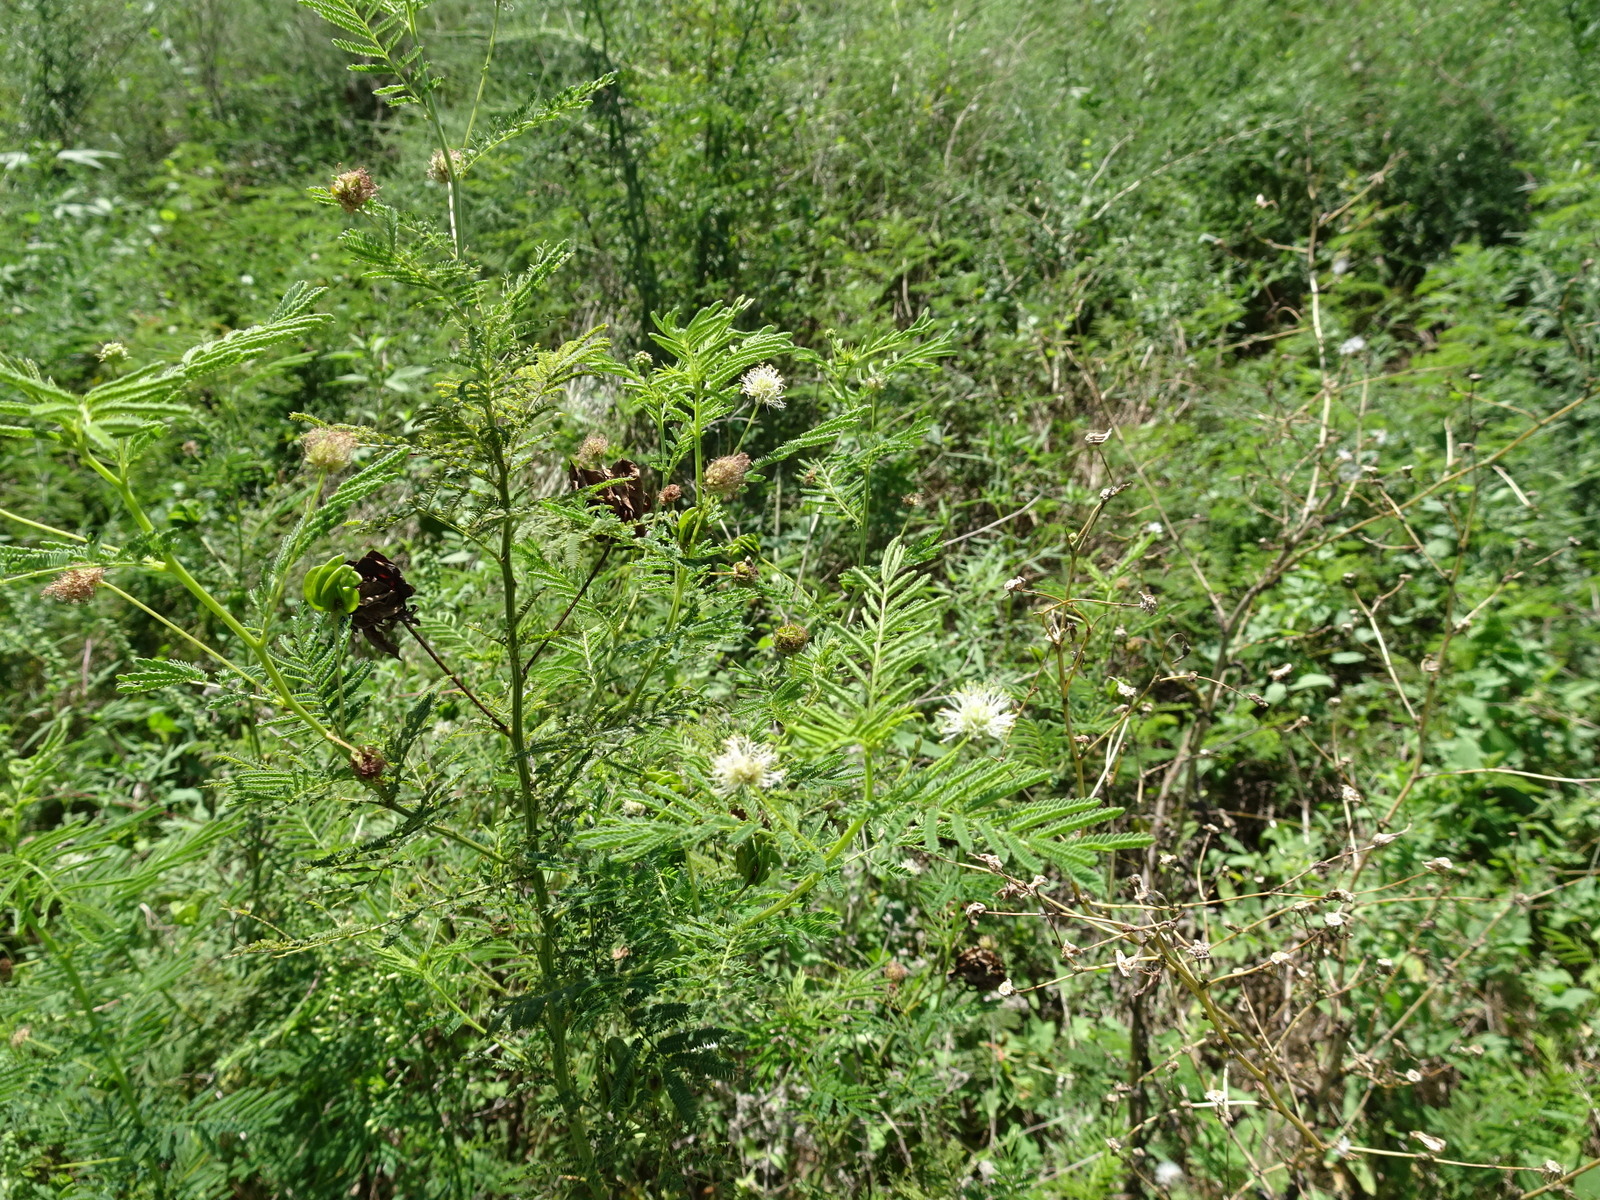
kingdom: Plantae
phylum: Tracheophyta
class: Magnoliopsida
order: Fabales
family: Fabaceae
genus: Desmanthus
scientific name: Desmanthus illinoensis
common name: Illinois bundle-flower
